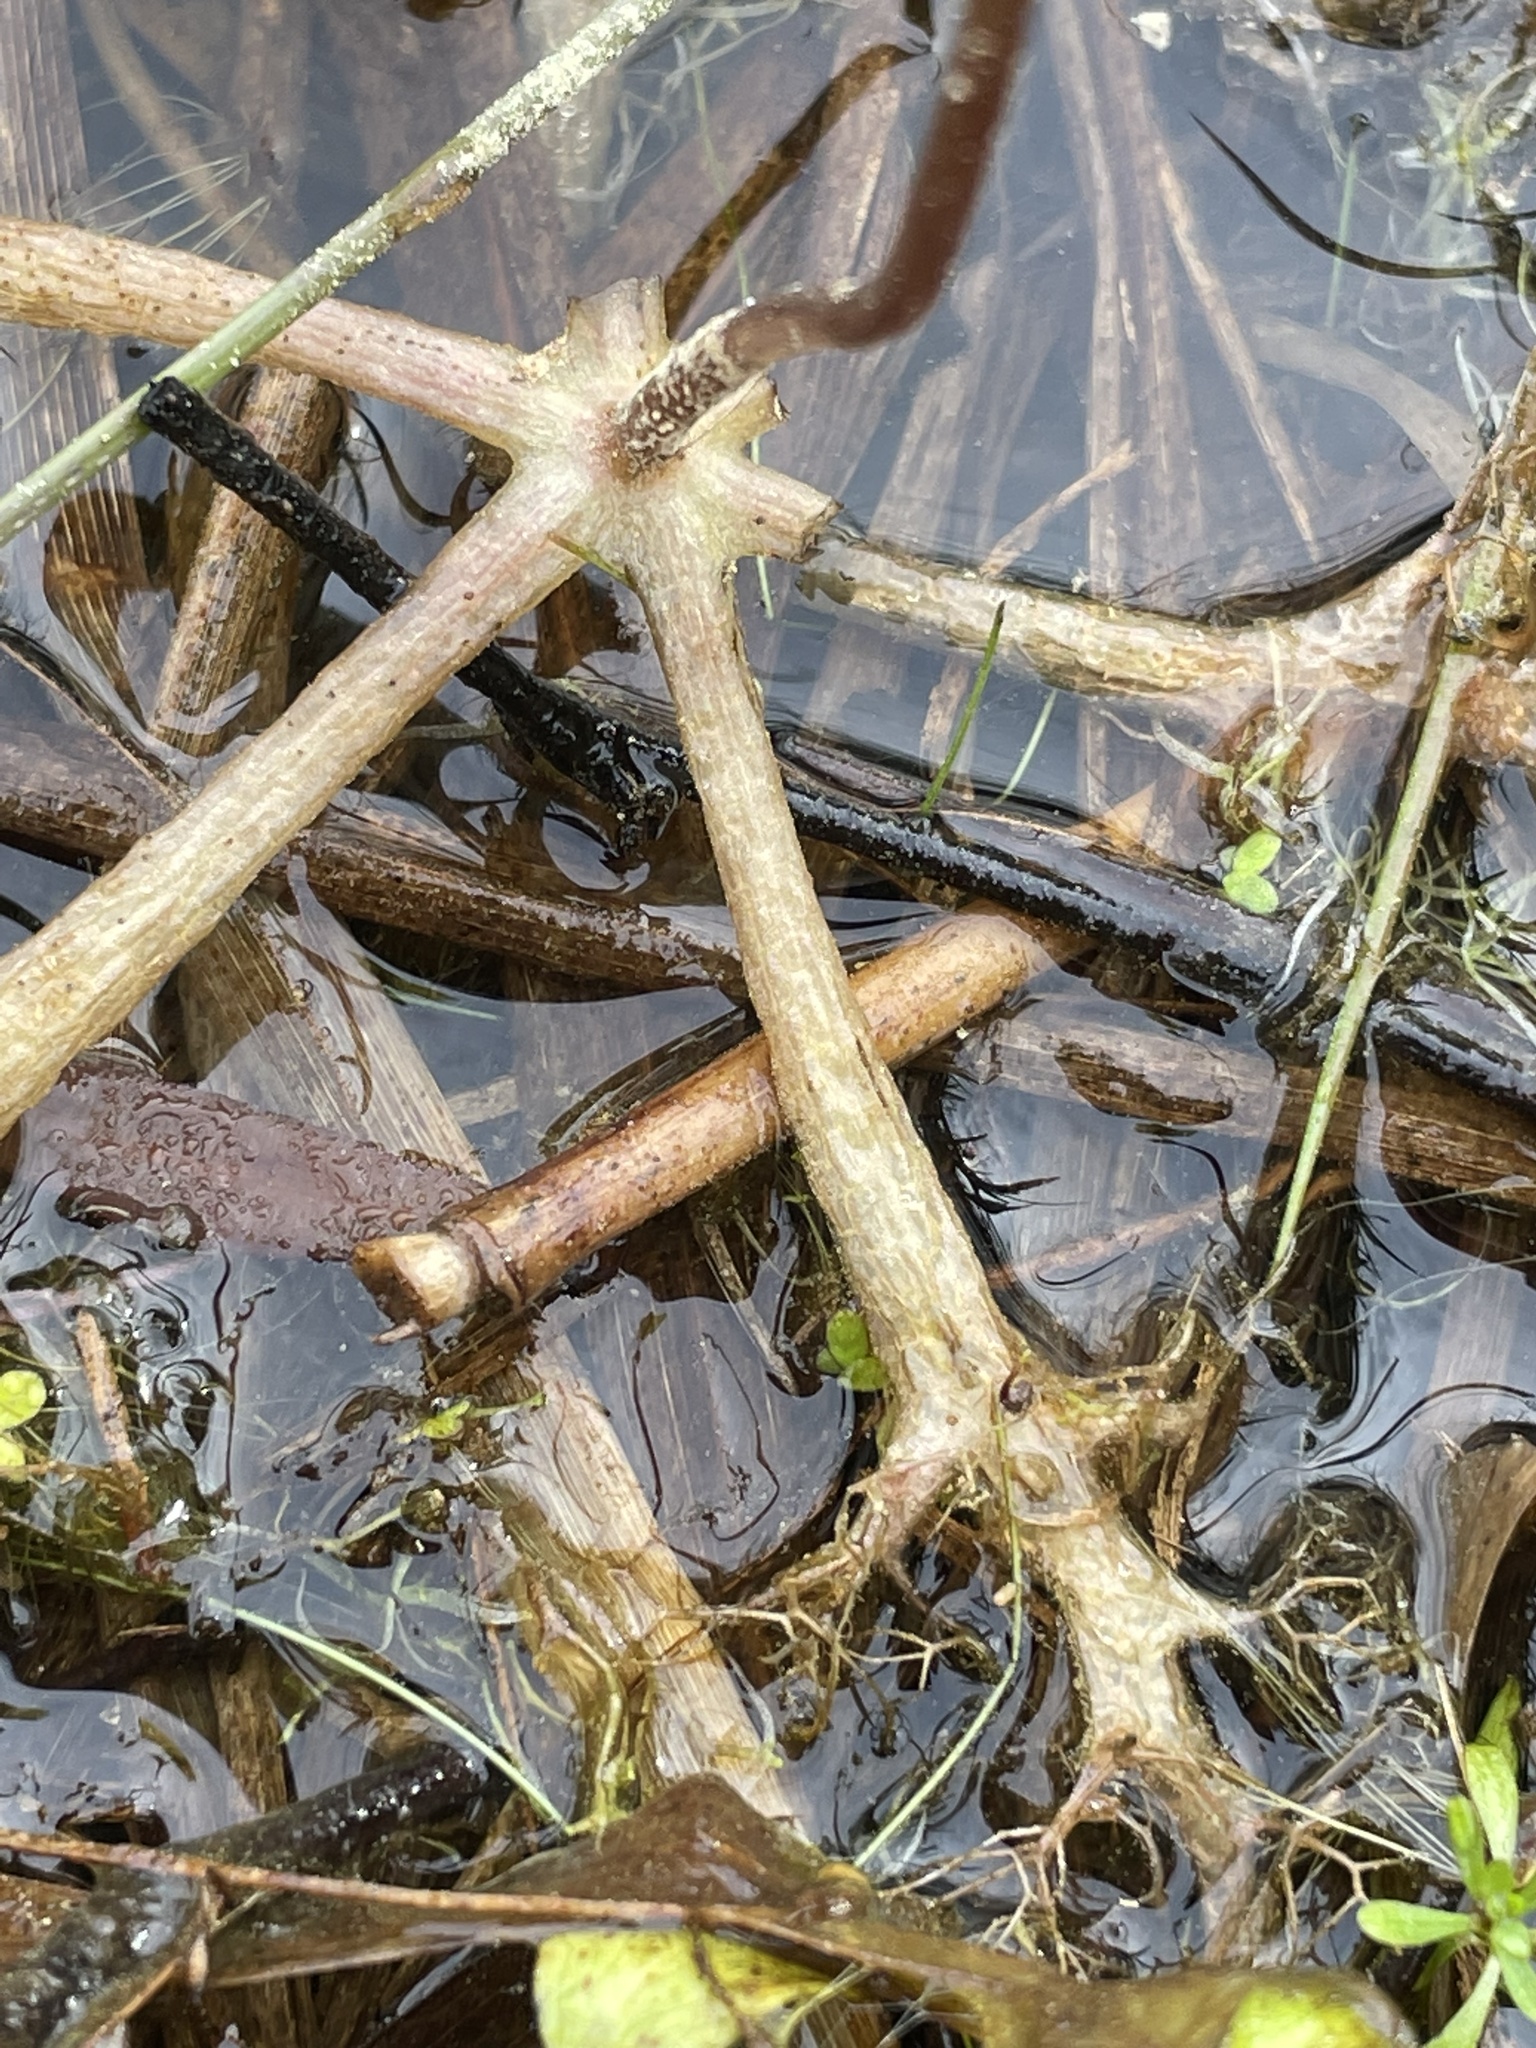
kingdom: Plantae
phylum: Tracheophyta
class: Magnoliopsida
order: Lamiales
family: Lentibulariaceae
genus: Utricularia
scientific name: Utricularia inflata
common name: Floating bladderwort
